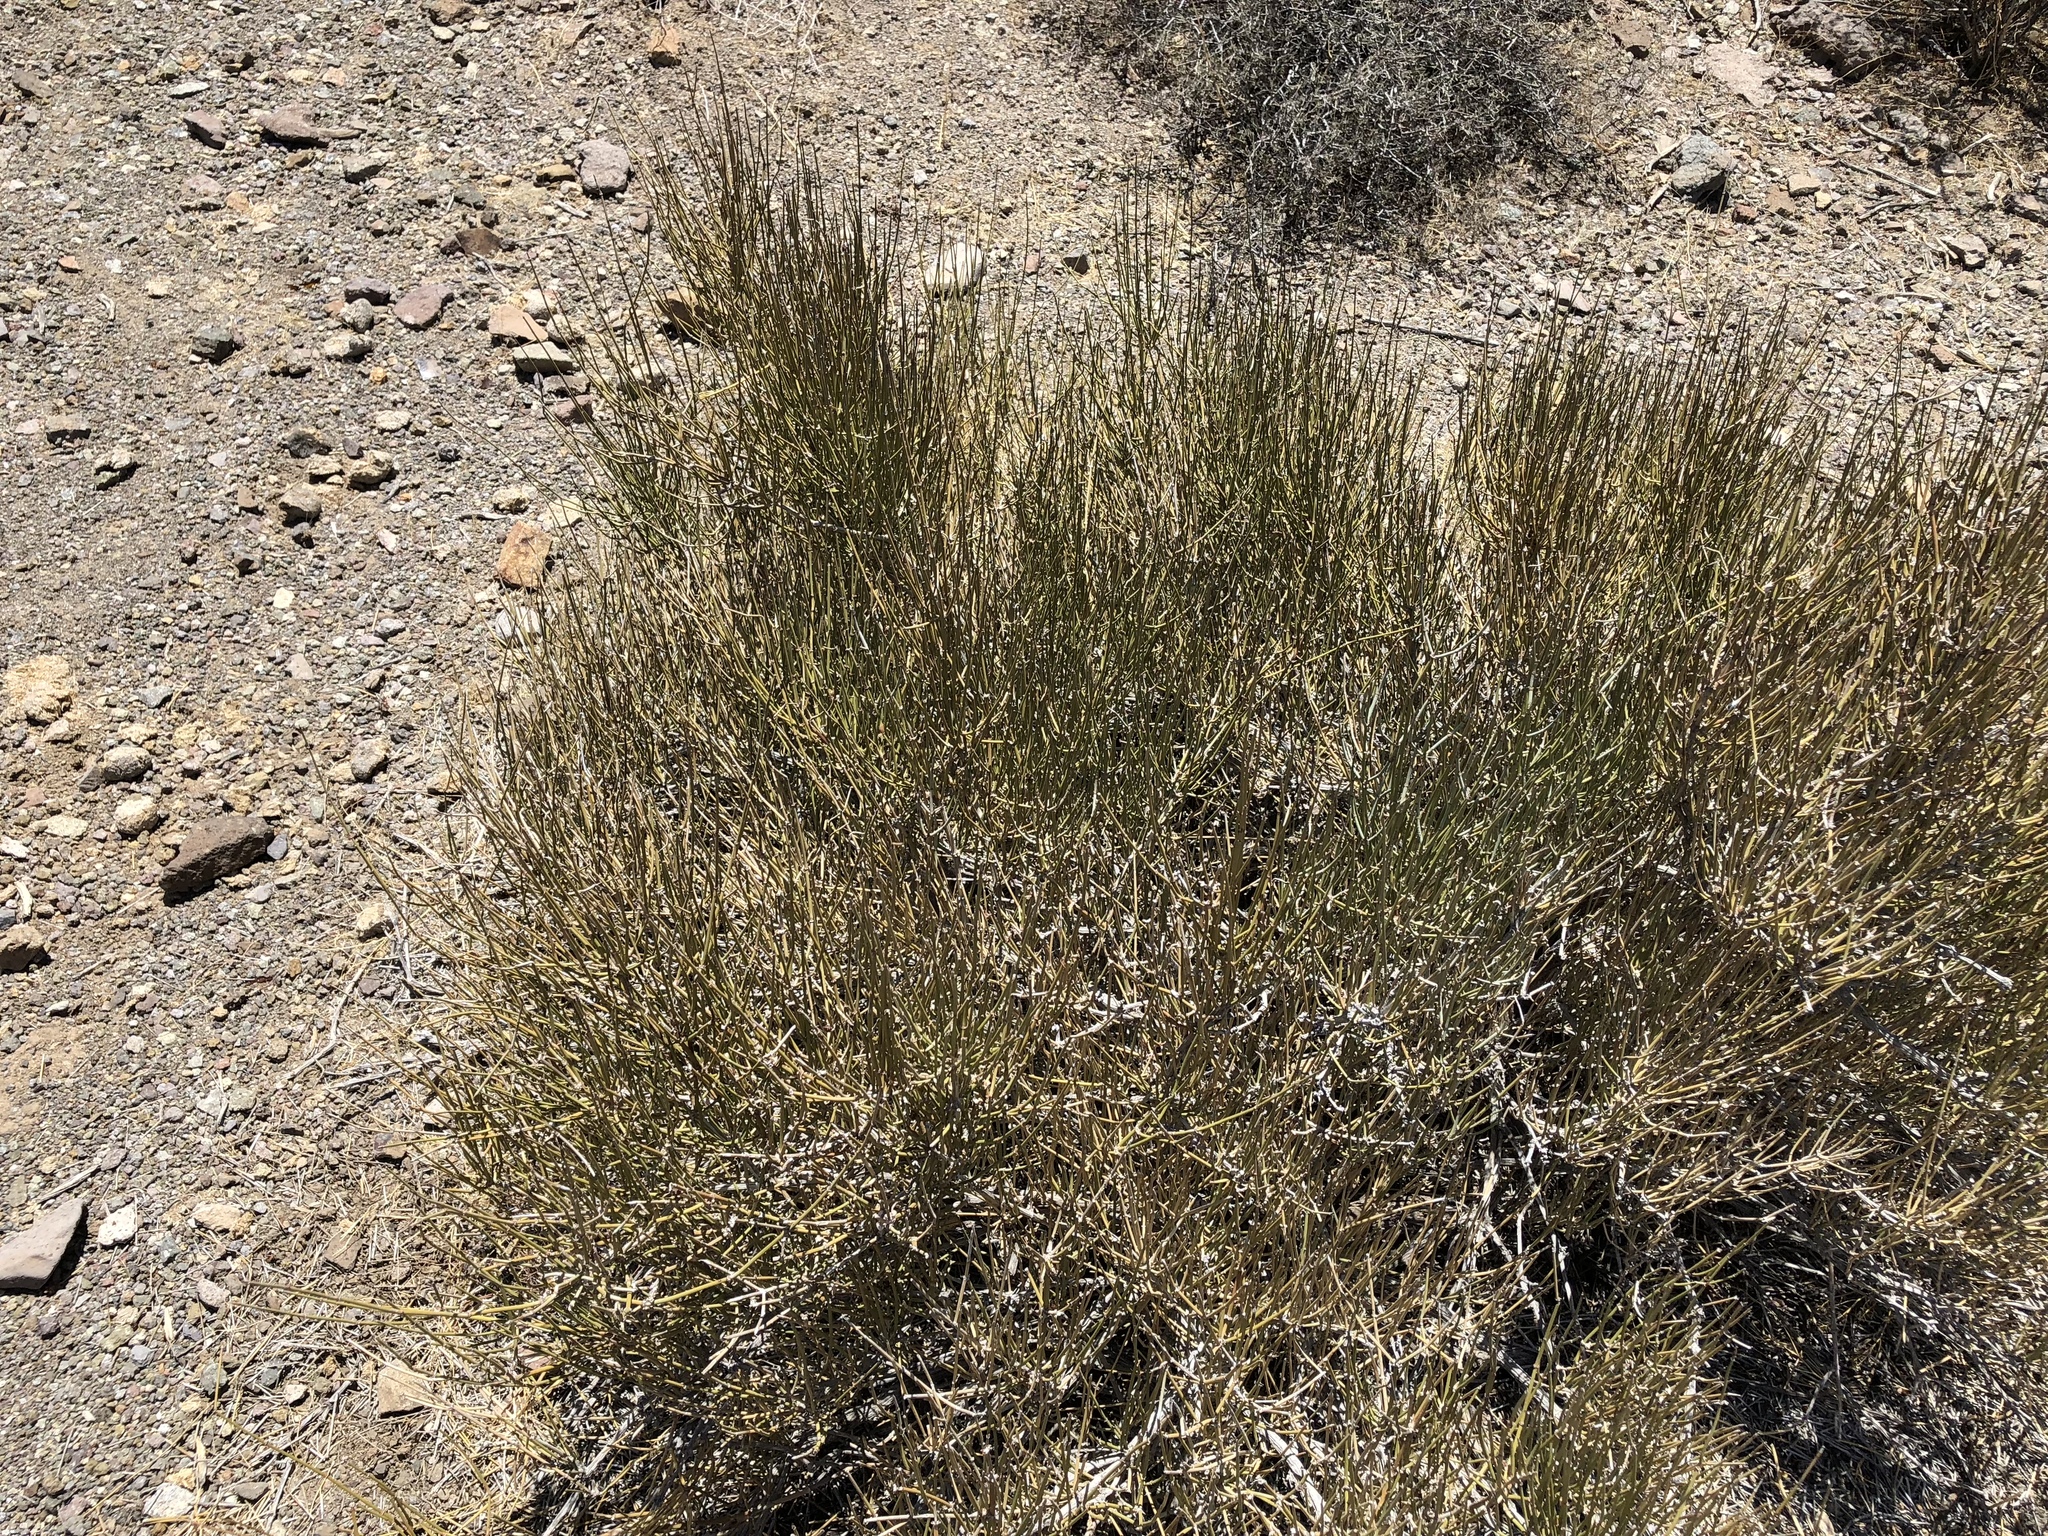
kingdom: Plantae
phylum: Tracheophyta
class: Gnetopsida
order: Ephedrales
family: Ephedraceae
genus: Ephedra
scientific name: Ephedra viridis
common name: Green ephedra
